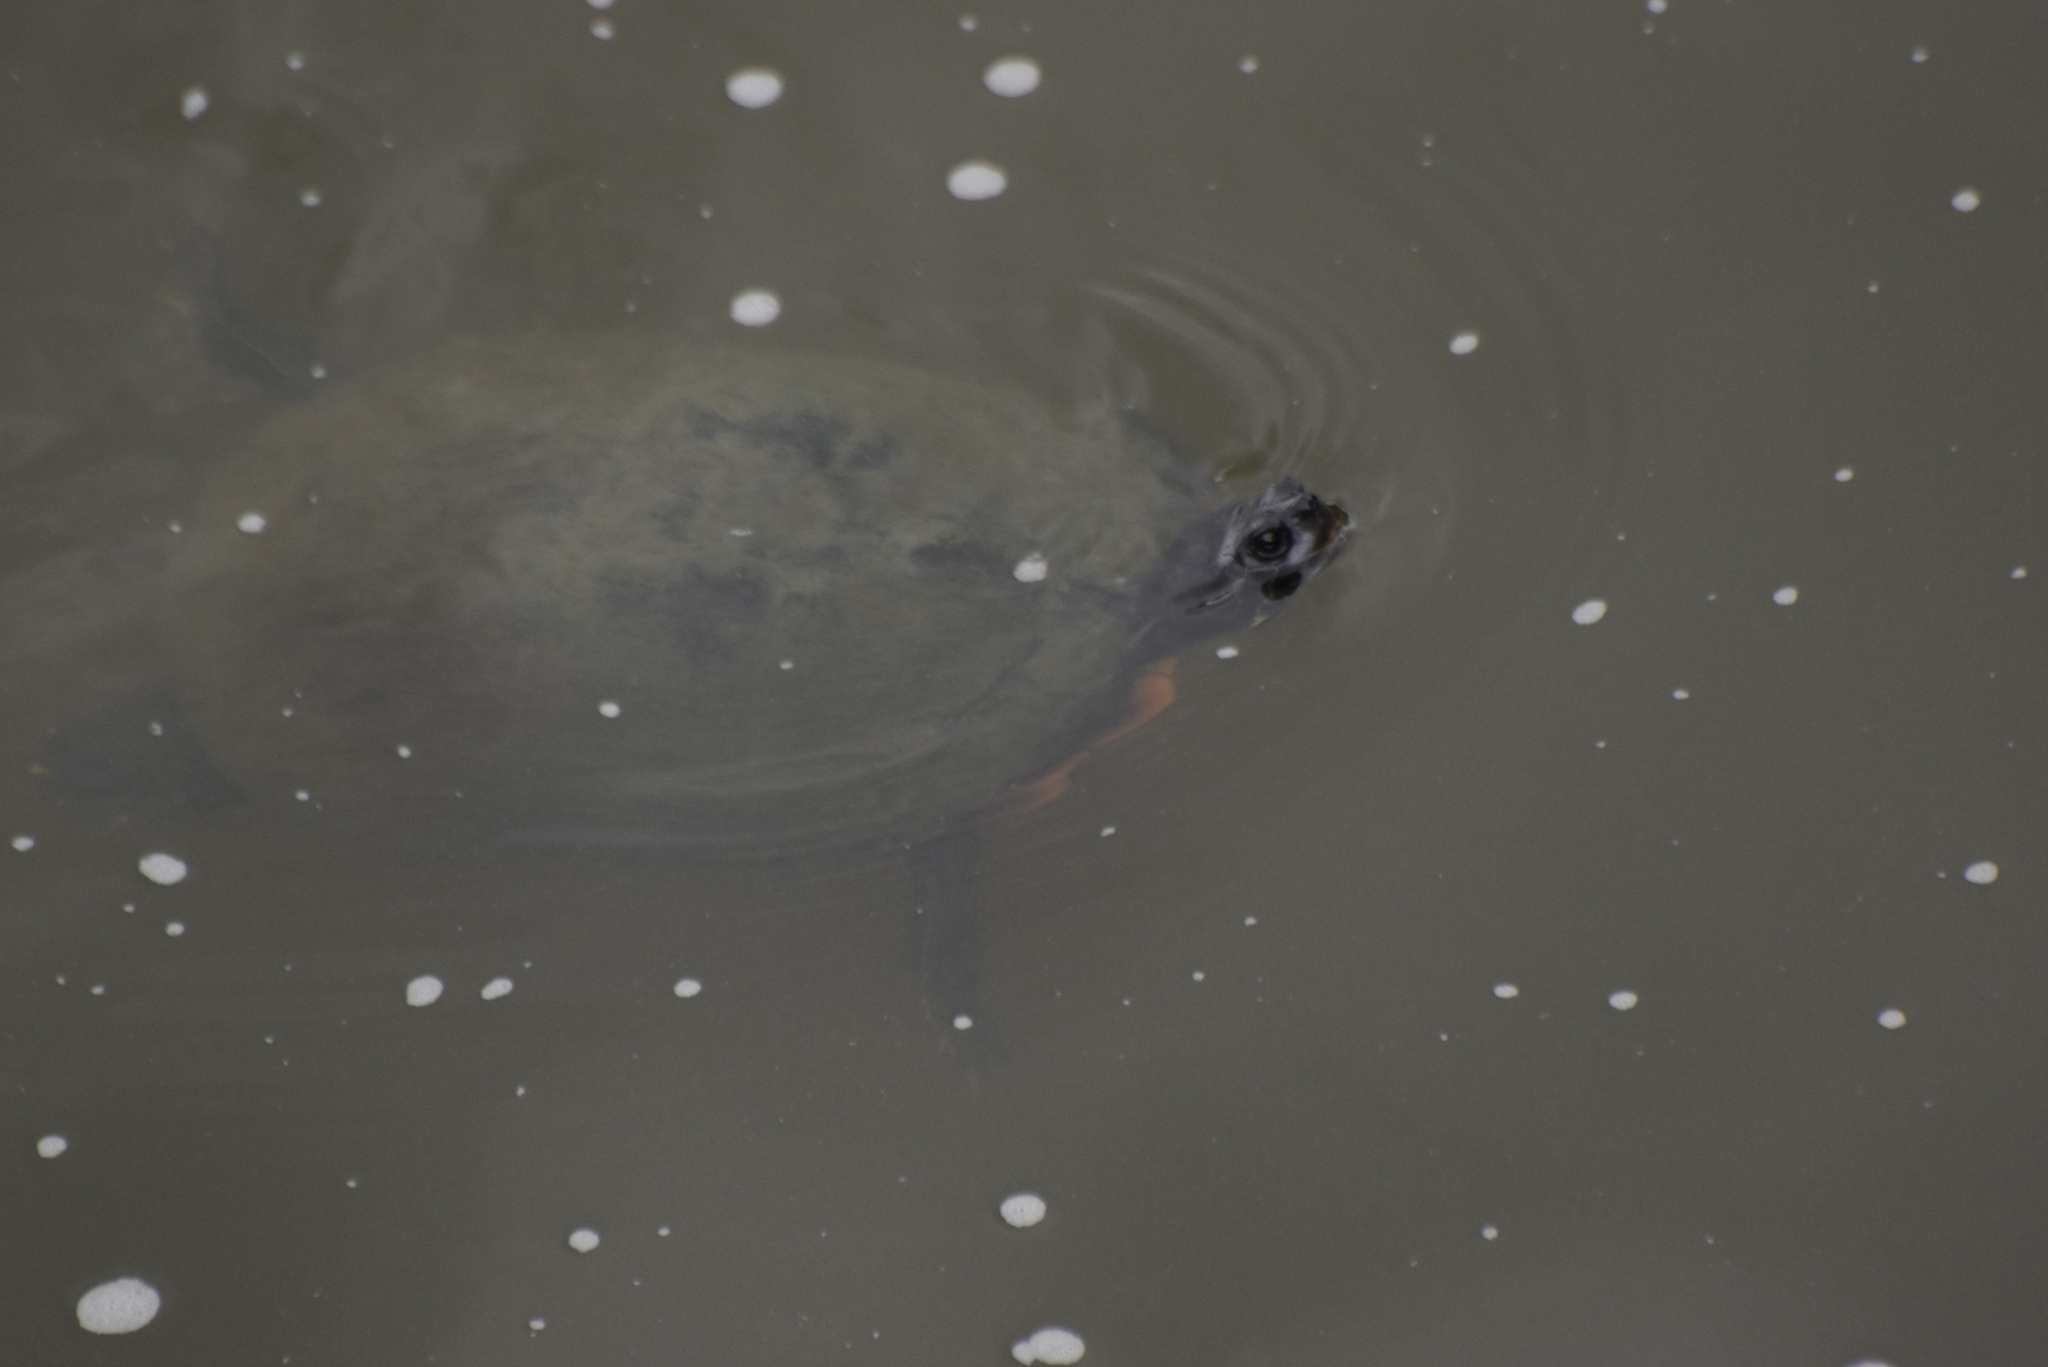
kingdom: Animalia
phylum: Chordata
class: Testudines
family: Emydidae
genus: Pseudemys
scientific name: Pseudemys rubriventris
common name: American red-bellied turtle
